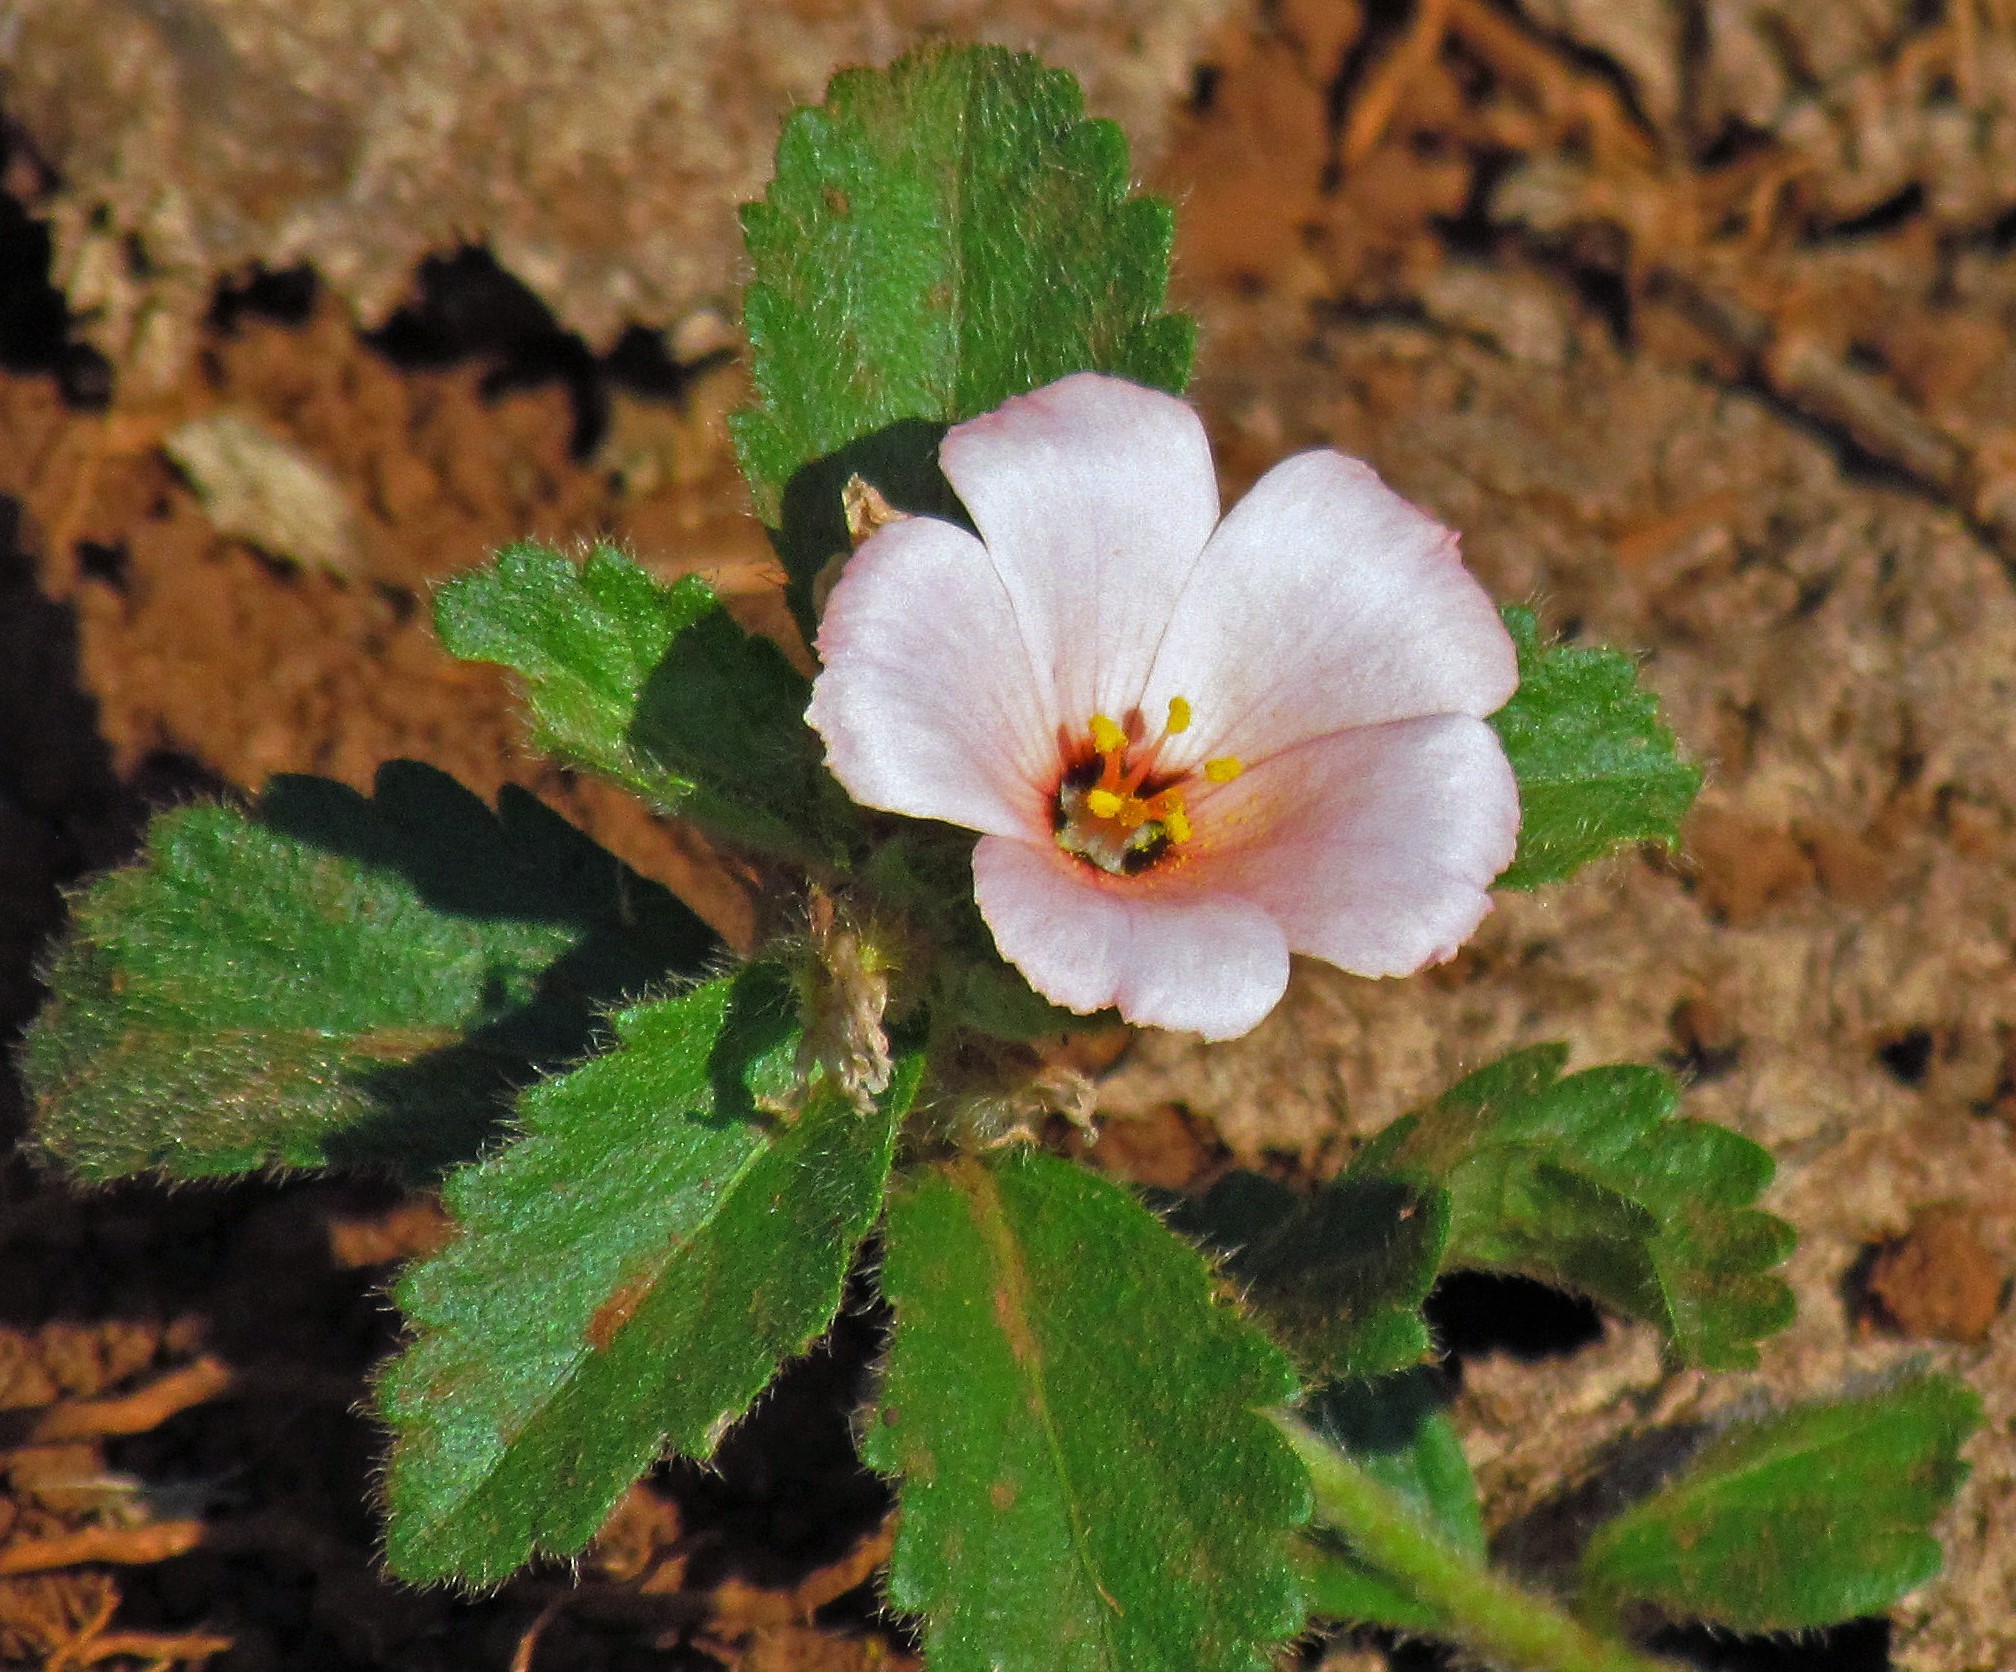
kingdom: Plantae
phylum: Tracheophyta
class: Magnoliopsida
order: Malpighiales
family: Turneraceae
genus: Turnera
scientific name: Turnera sidoides
